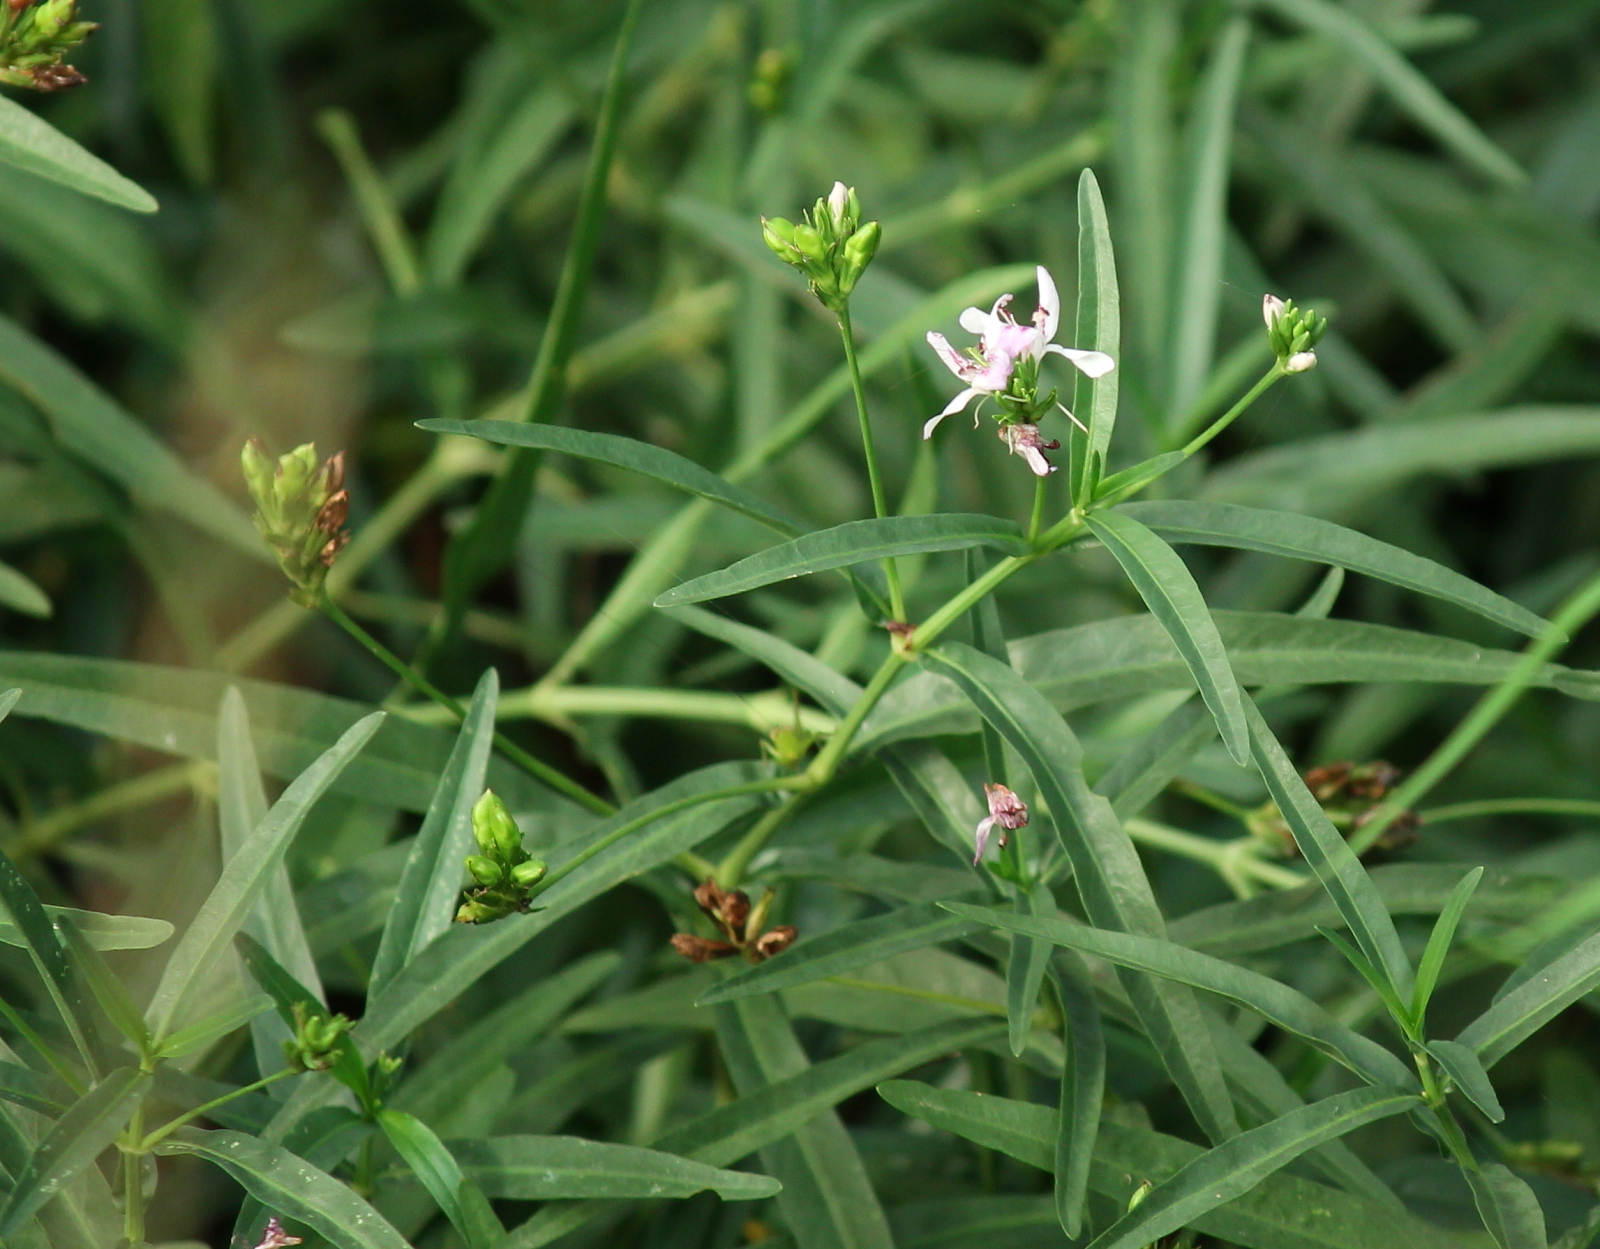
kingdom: Plantae
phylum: Tracheophyta
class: Magnoliopsida
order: Lamiales
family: Acanthaceae
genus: Dianthera
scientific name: Dianthera americana
